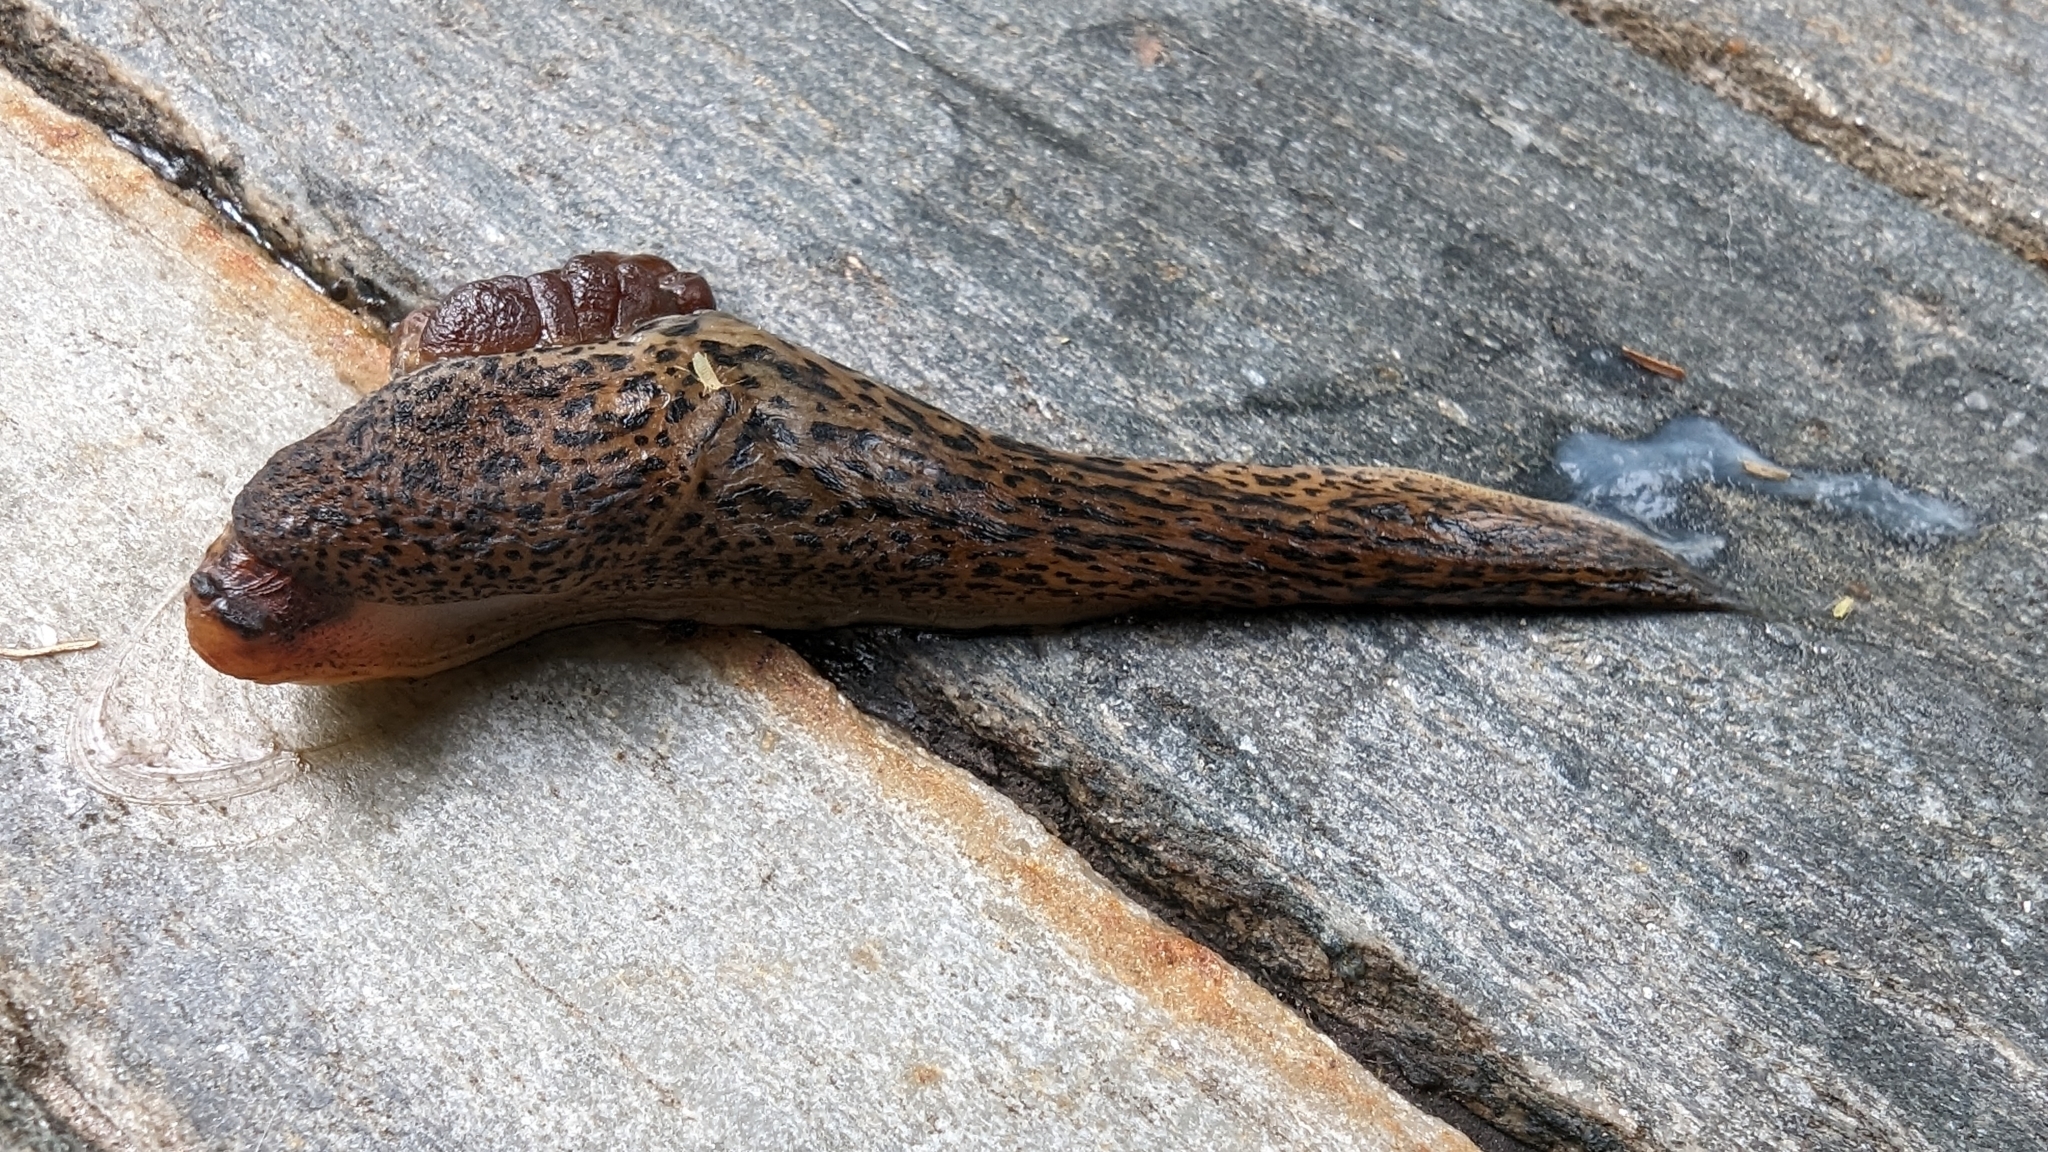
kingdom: Animalia
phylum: Mollusca
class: Gastropoda
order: Stylommatophora
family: Limacidae
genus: Limax
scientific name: Limax maximus
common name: Great grey slug
